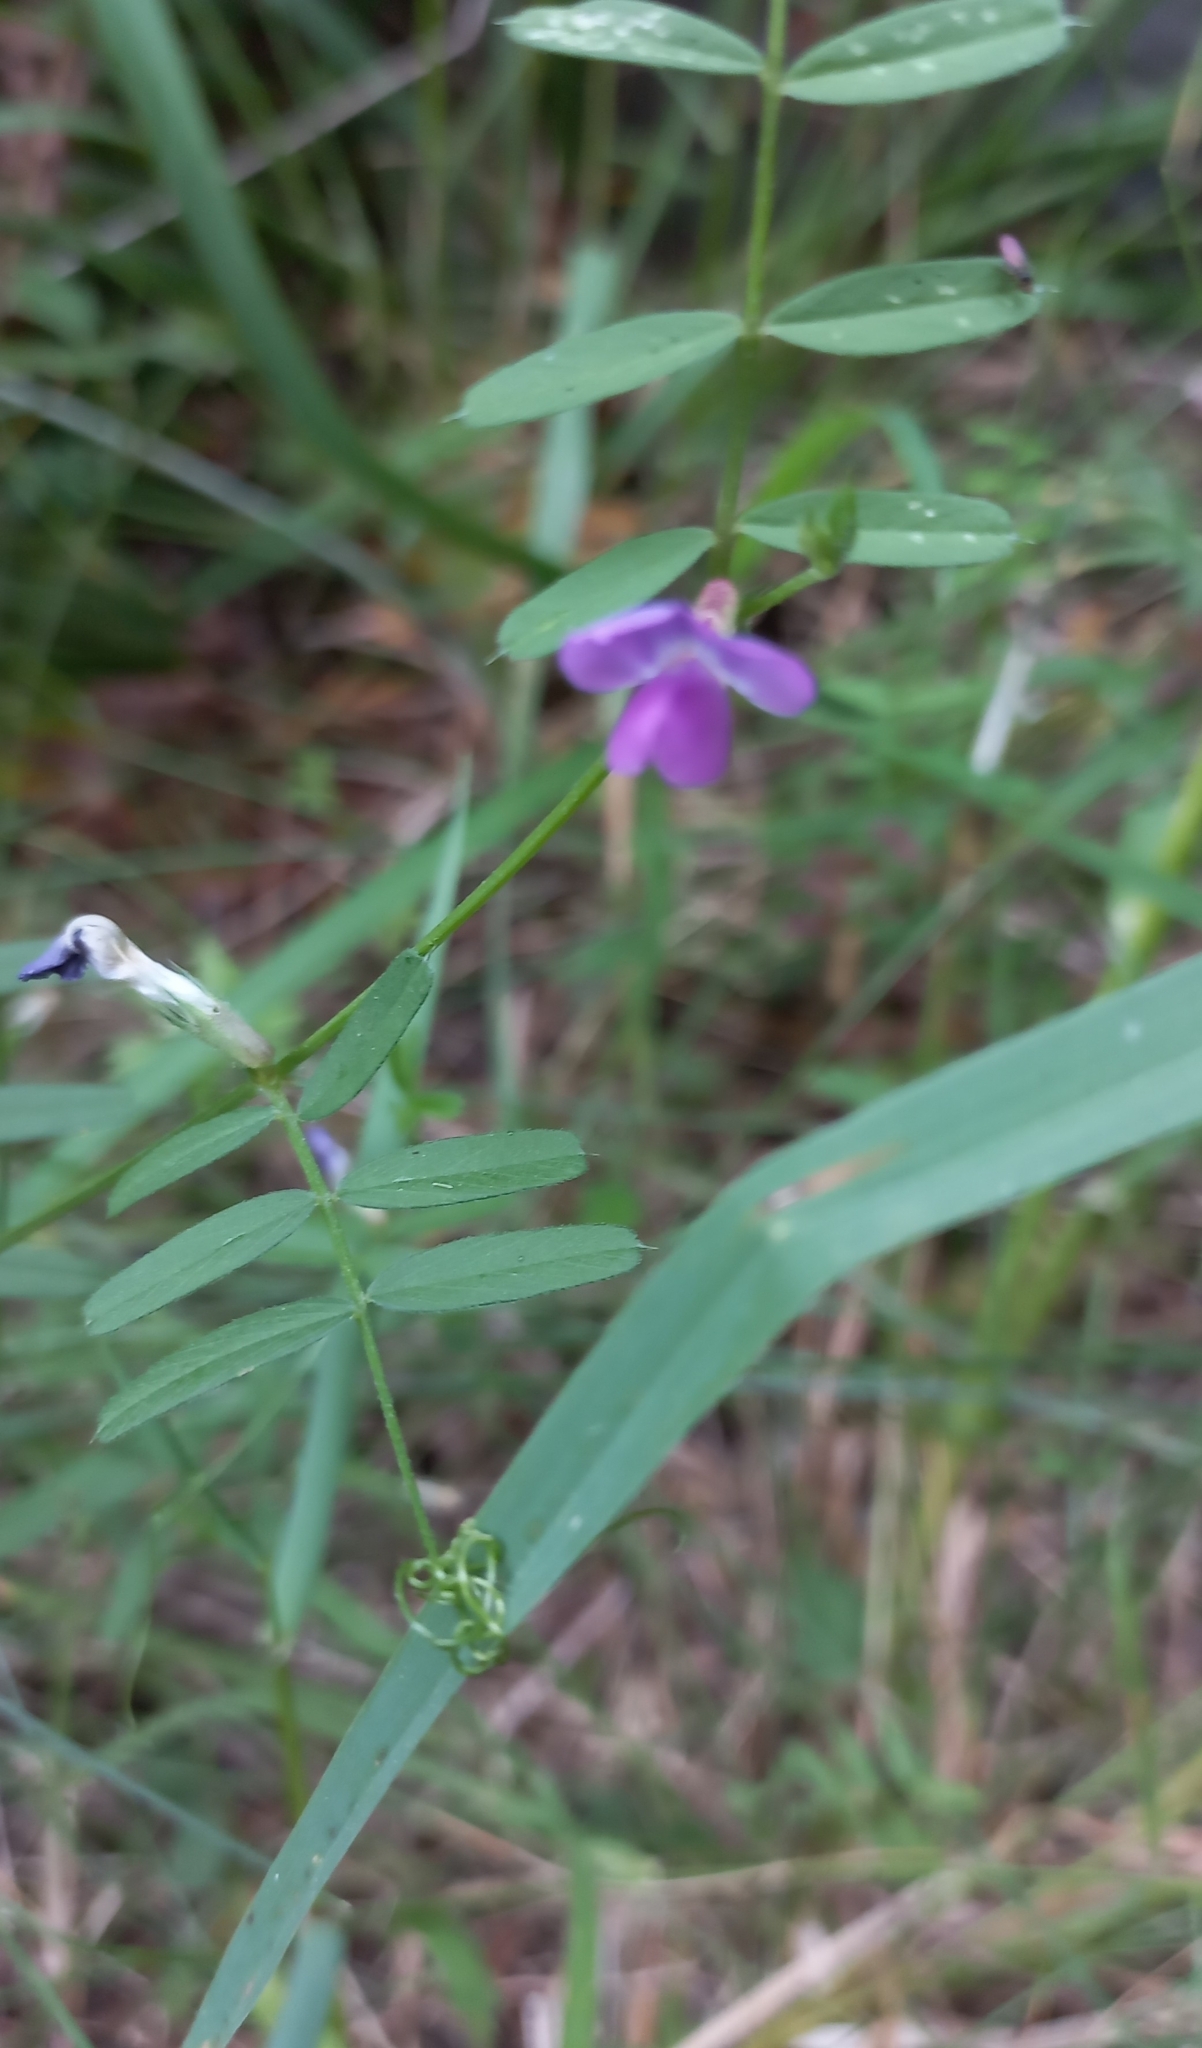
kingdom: Plantae
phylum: Tracheophyta
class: Magnoliopsida
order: Fabales
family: Fabaceae
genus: Vicia
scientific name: Vicia sativa
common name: Garden vetch
